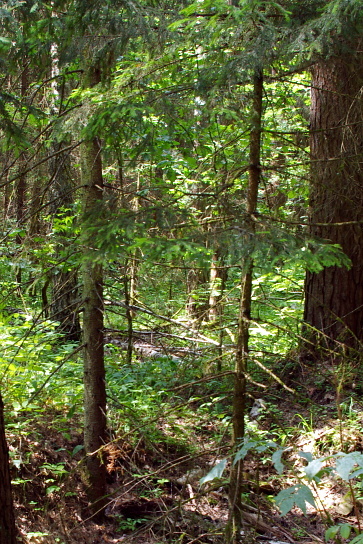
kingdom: Plantae
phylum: Tracheophyta
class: Pinopsida
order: Pinales
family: Pinaceae
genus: Picea
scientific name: Picea abies
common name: Norway spruce
